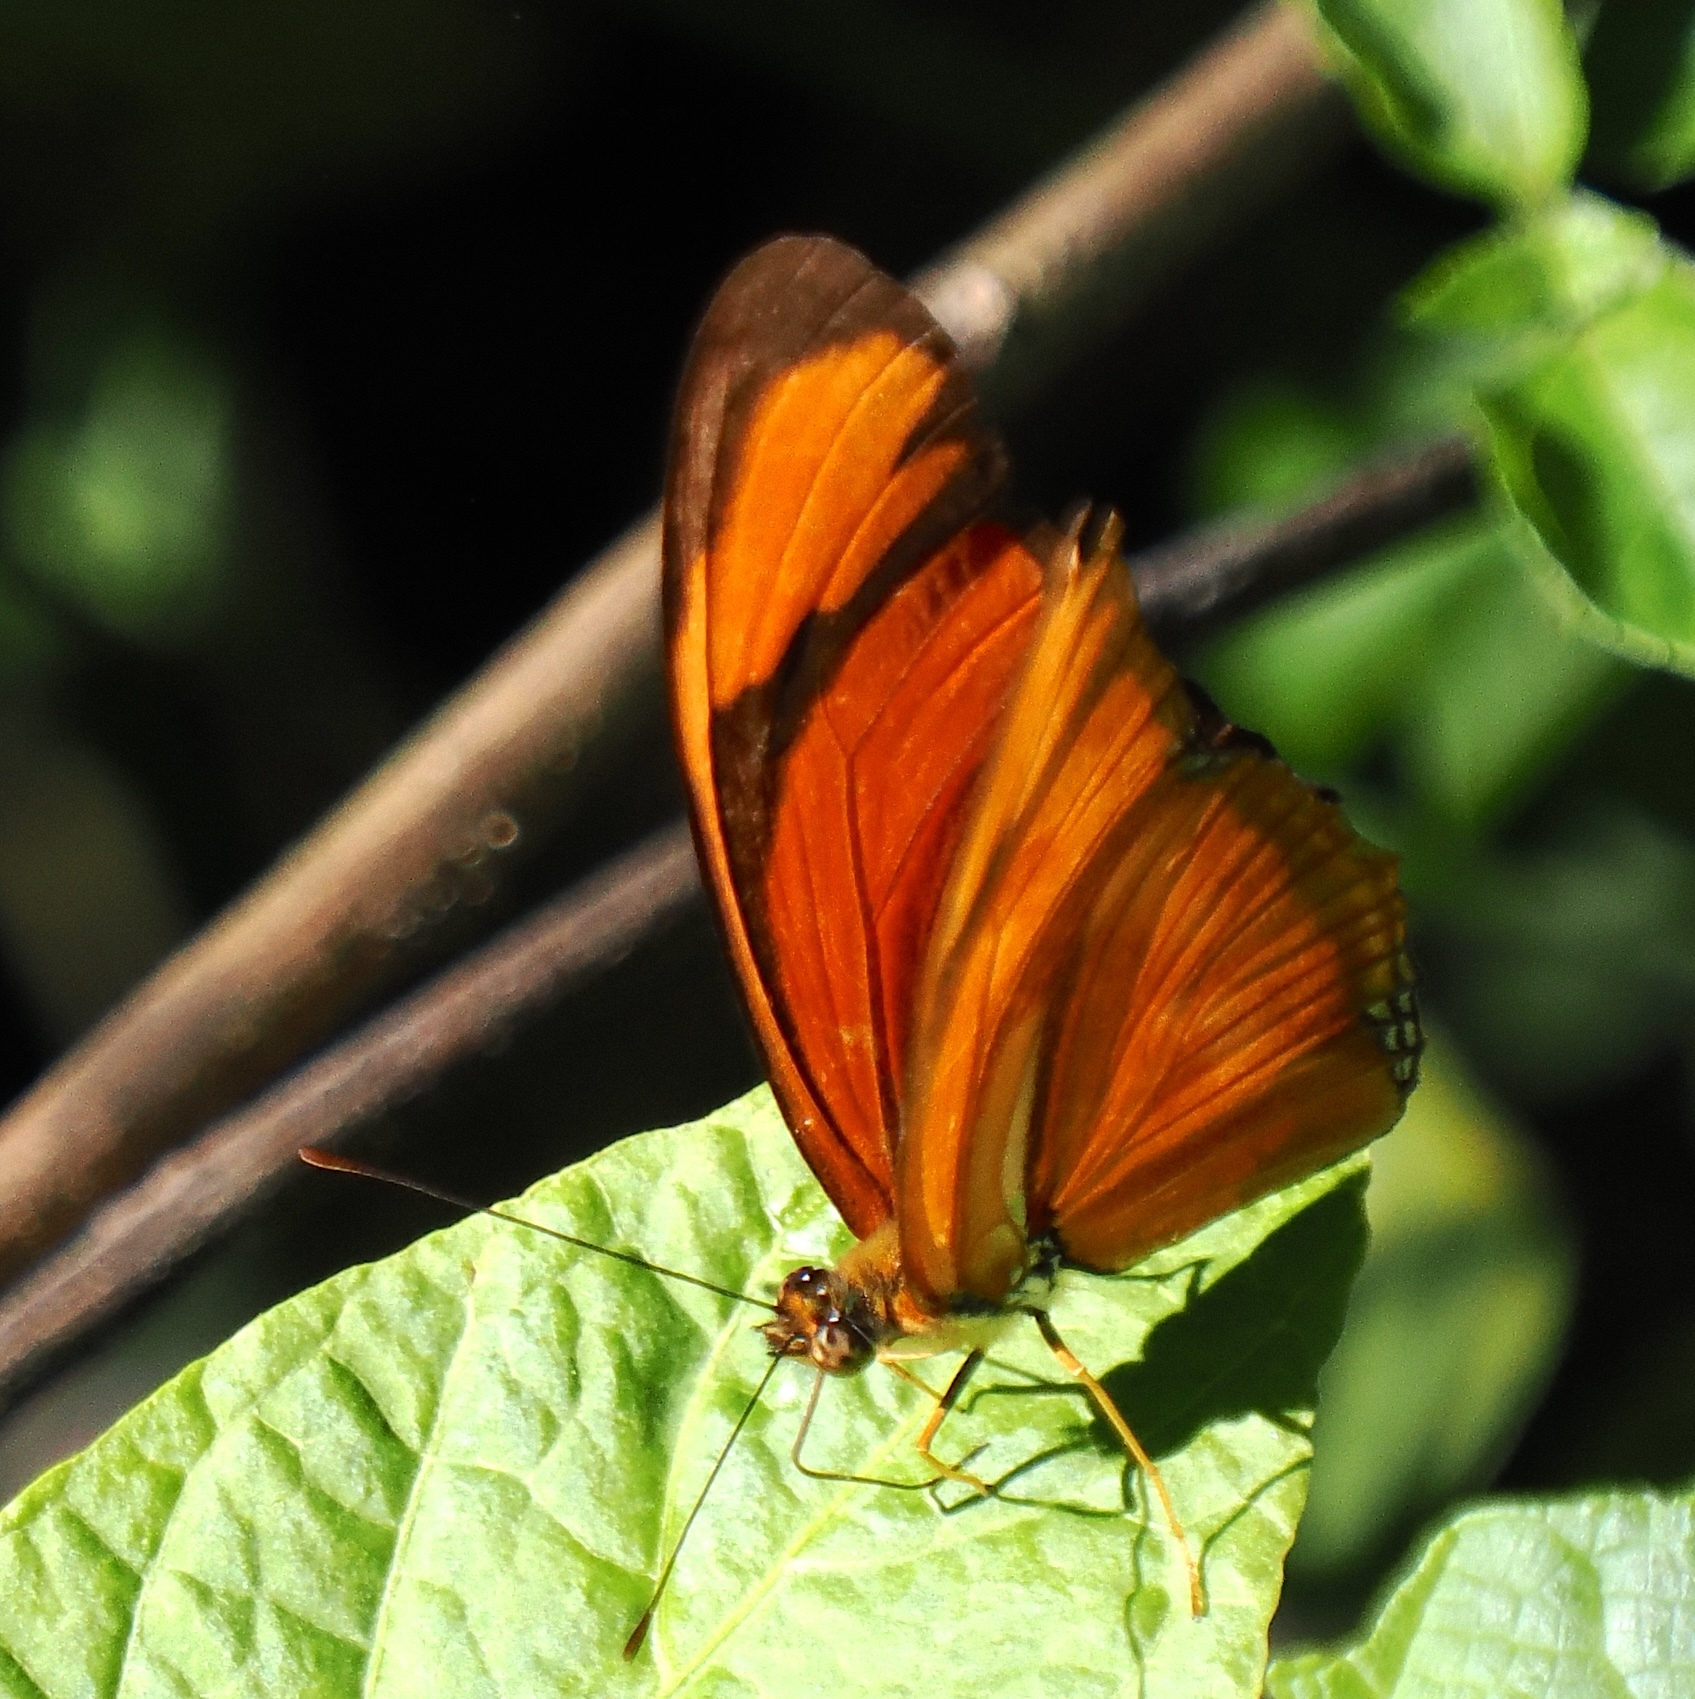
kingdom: Animalia
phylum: Arthropoda
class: Insecta
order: Lepidoptera
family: Nymphalidae
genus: Dryas
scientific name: Dryas iulia
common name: Flambeau
